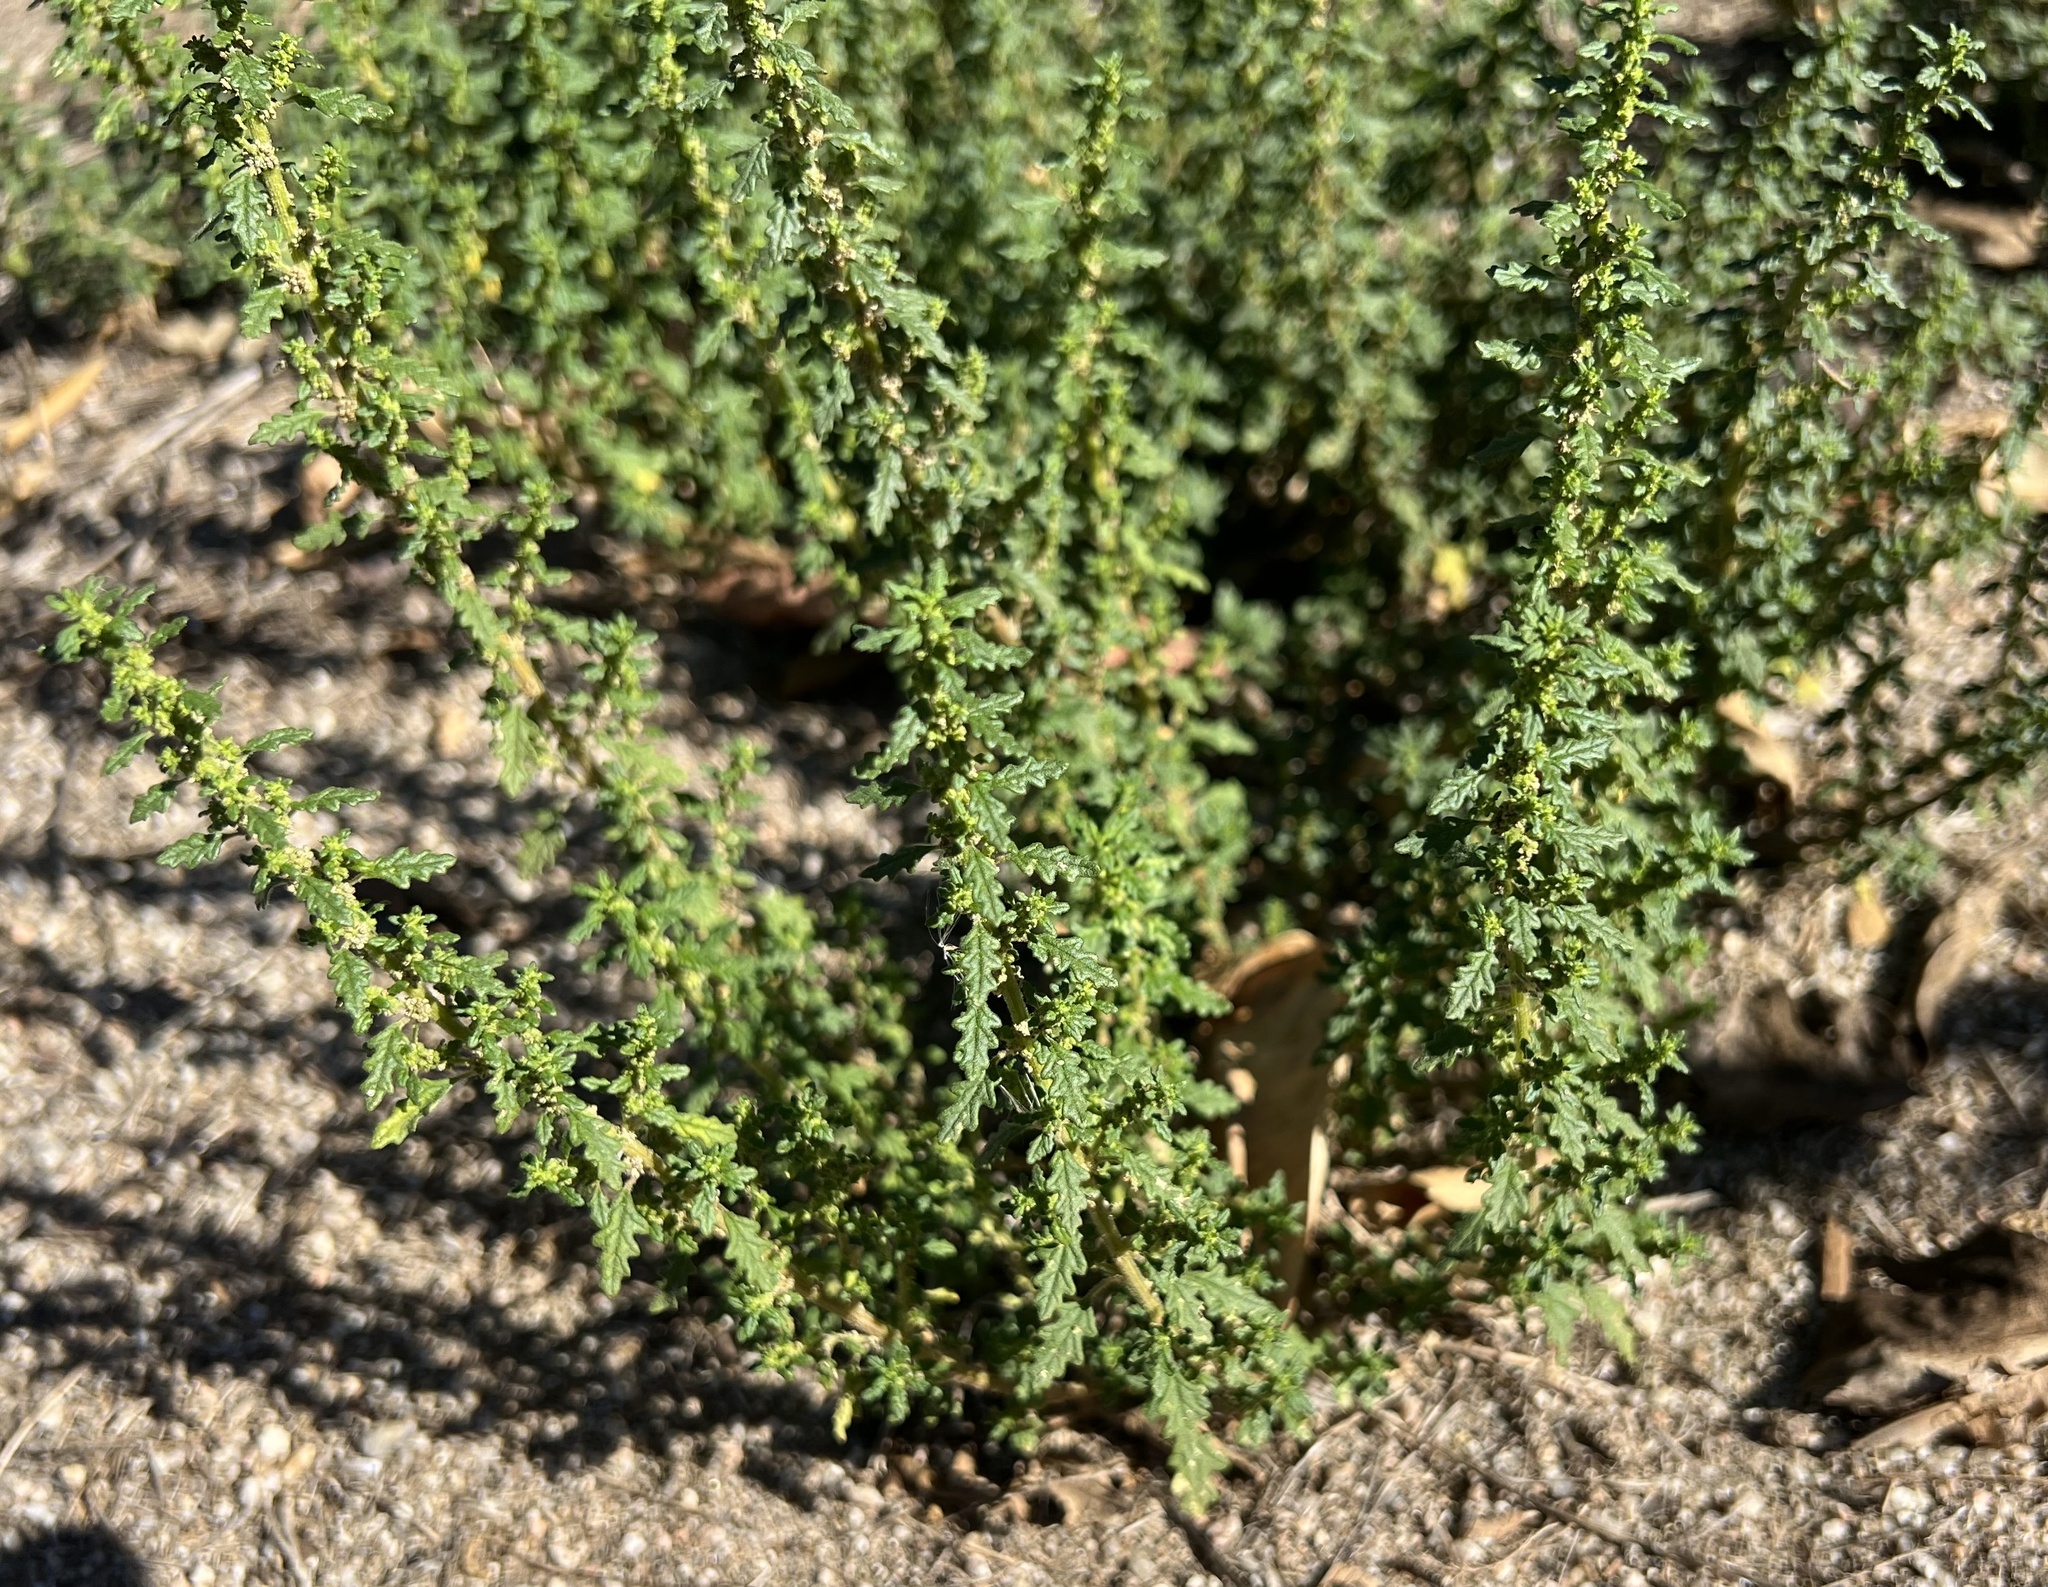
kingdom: Plantae
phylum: Tracheophyta
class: Magnoliopsida
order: Caryophyllales
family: Amaranthaceae
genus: Dysphania
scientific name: Dysphania pumilio
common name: Clammy goosefoot
